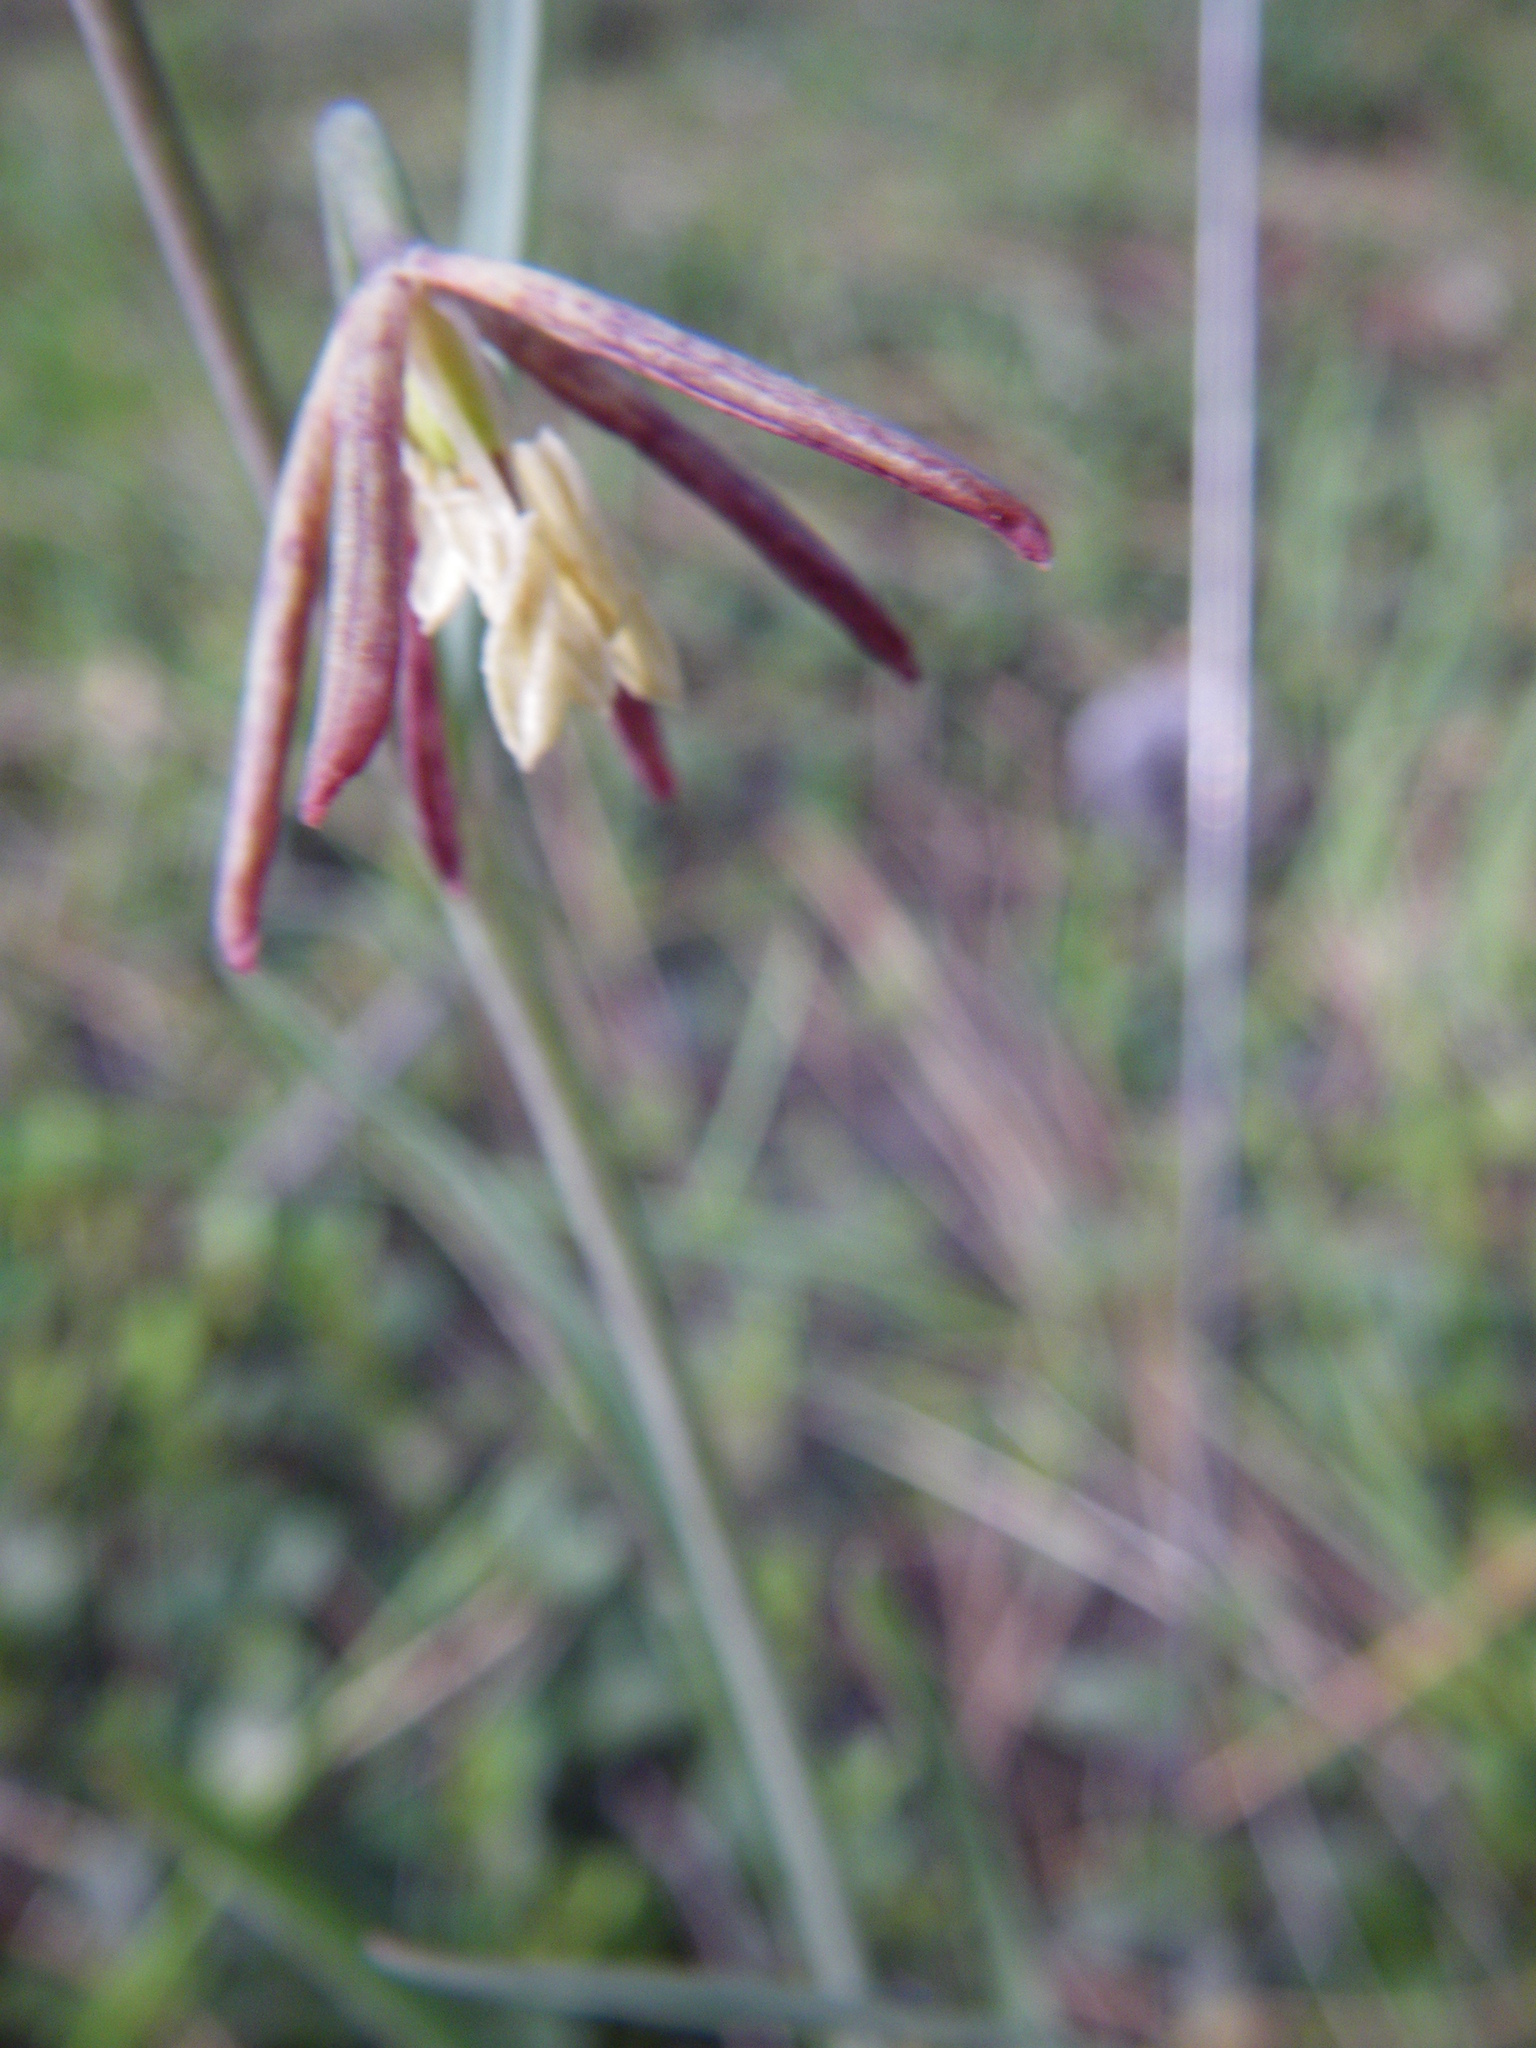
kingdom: Plantae
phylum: Tracheophyta
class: Liliopsida
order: Liliales
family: Liliaceae
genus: Fritillaria
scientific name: Fritillaria atropurpurea
